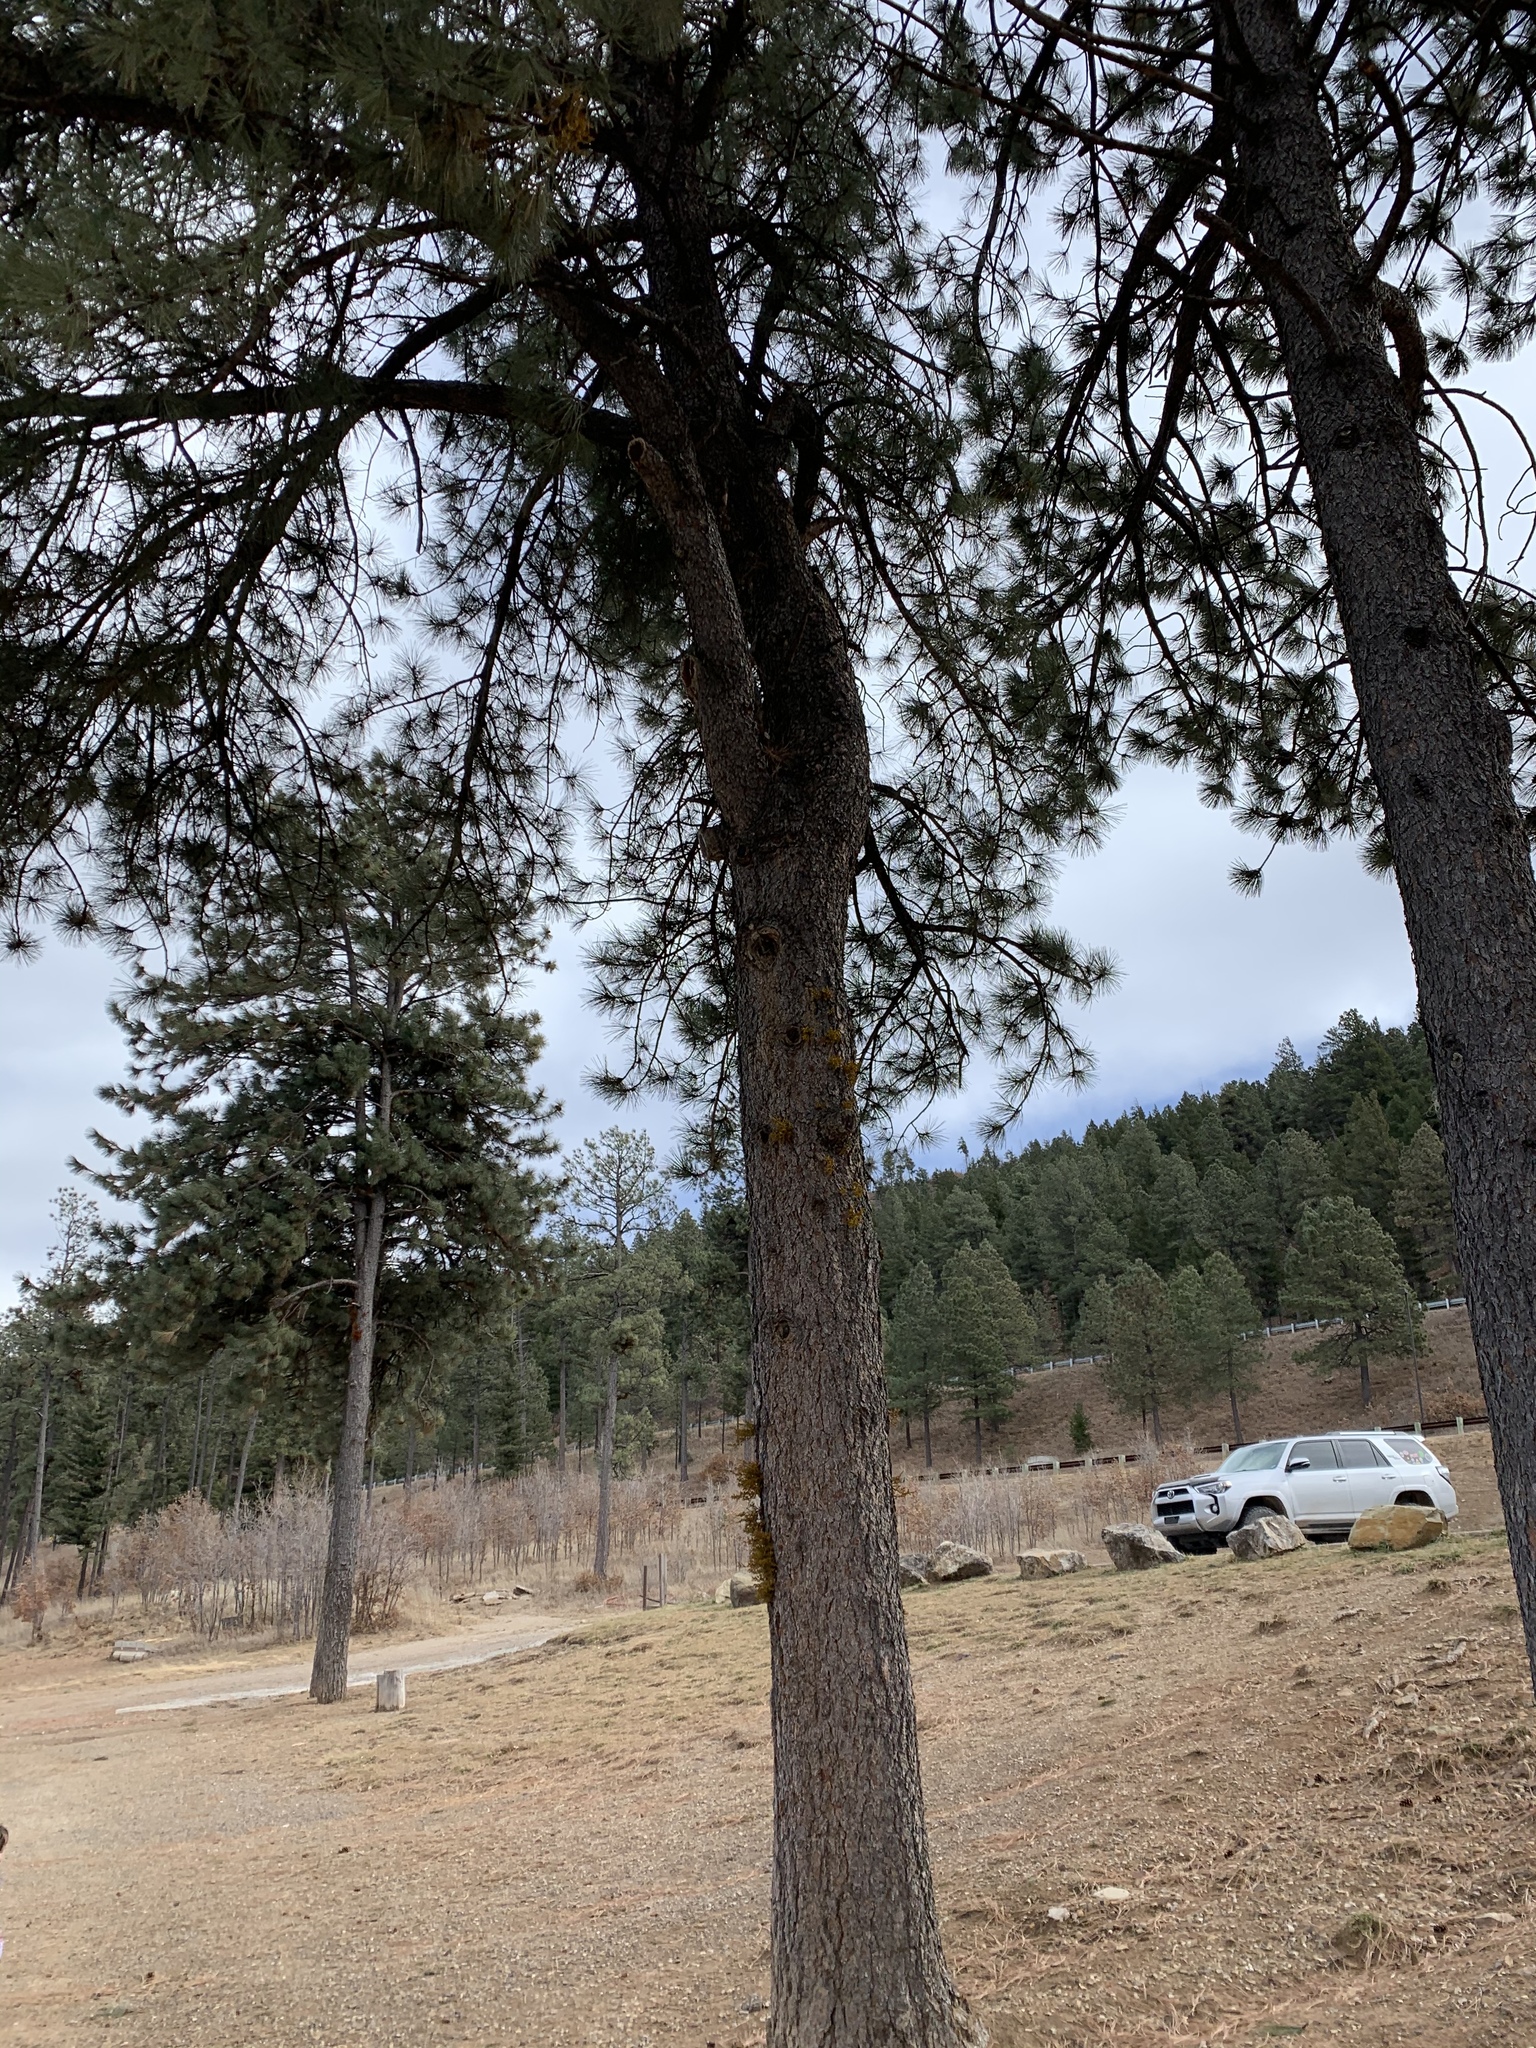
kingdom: Plantae
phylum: Tracheophyta
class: Pinopsida
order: Pinales
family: Pinaceae
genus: Pinus
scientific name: Pinus ponderosa
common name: Western yellow-pine
